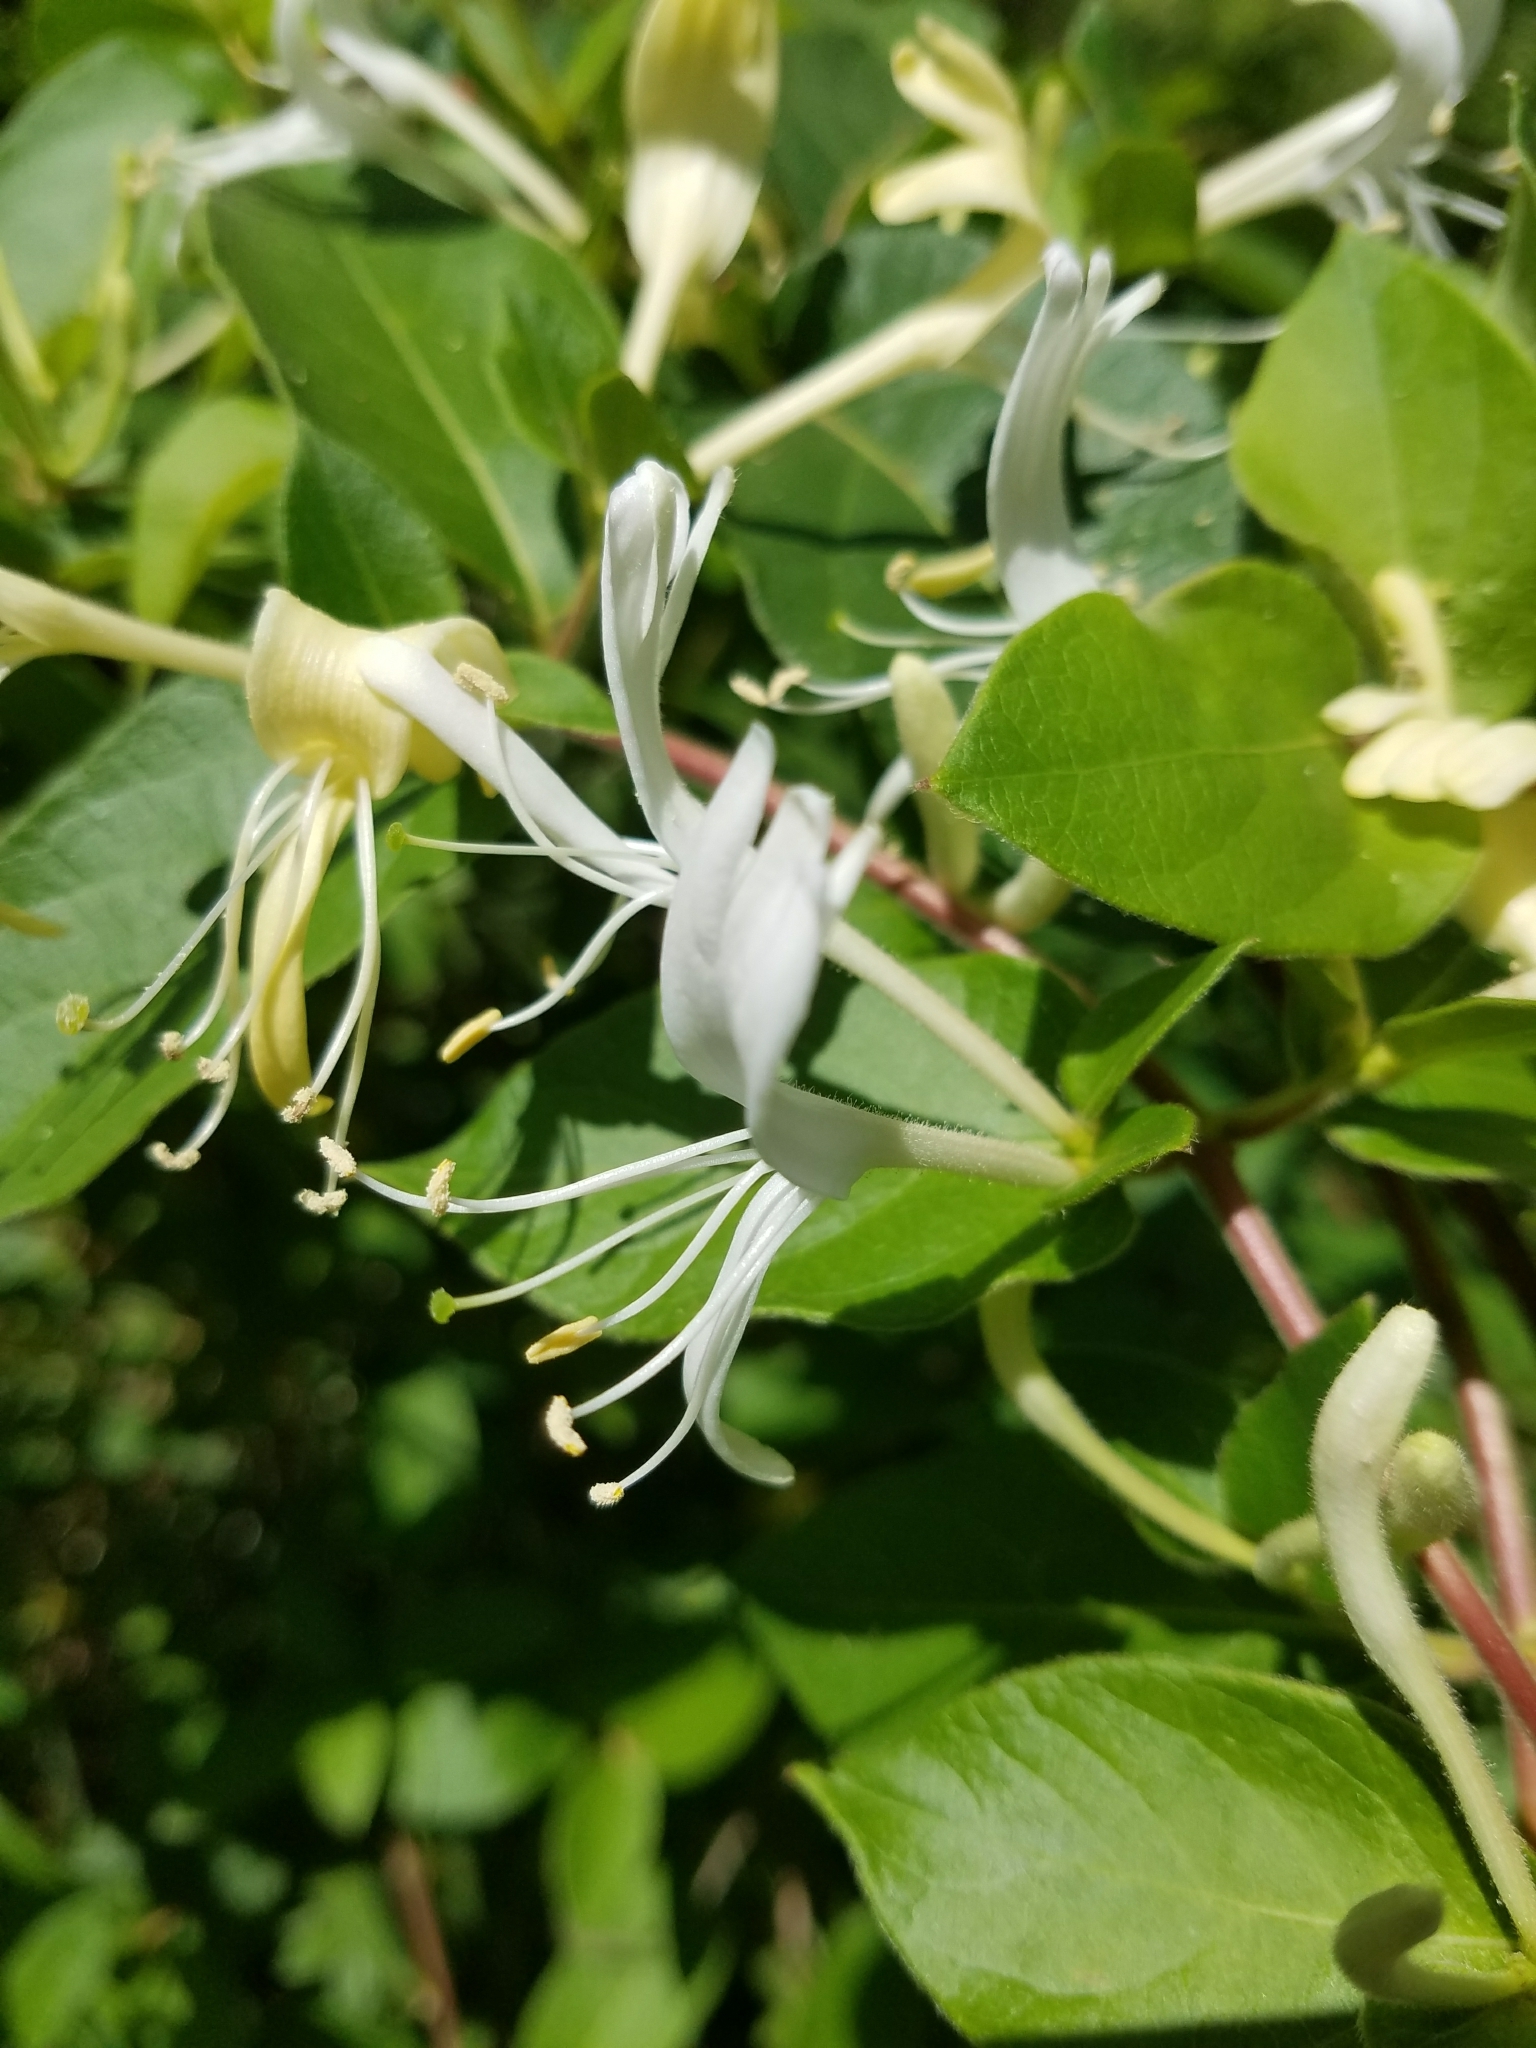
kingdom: Plantae
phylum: Tracheophyta
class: Magnoliopsida
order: Dipsacales
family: Caprifoliaceae
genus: Lonicera
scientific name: Lonicera japonica
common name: Japanese honeysuckle
